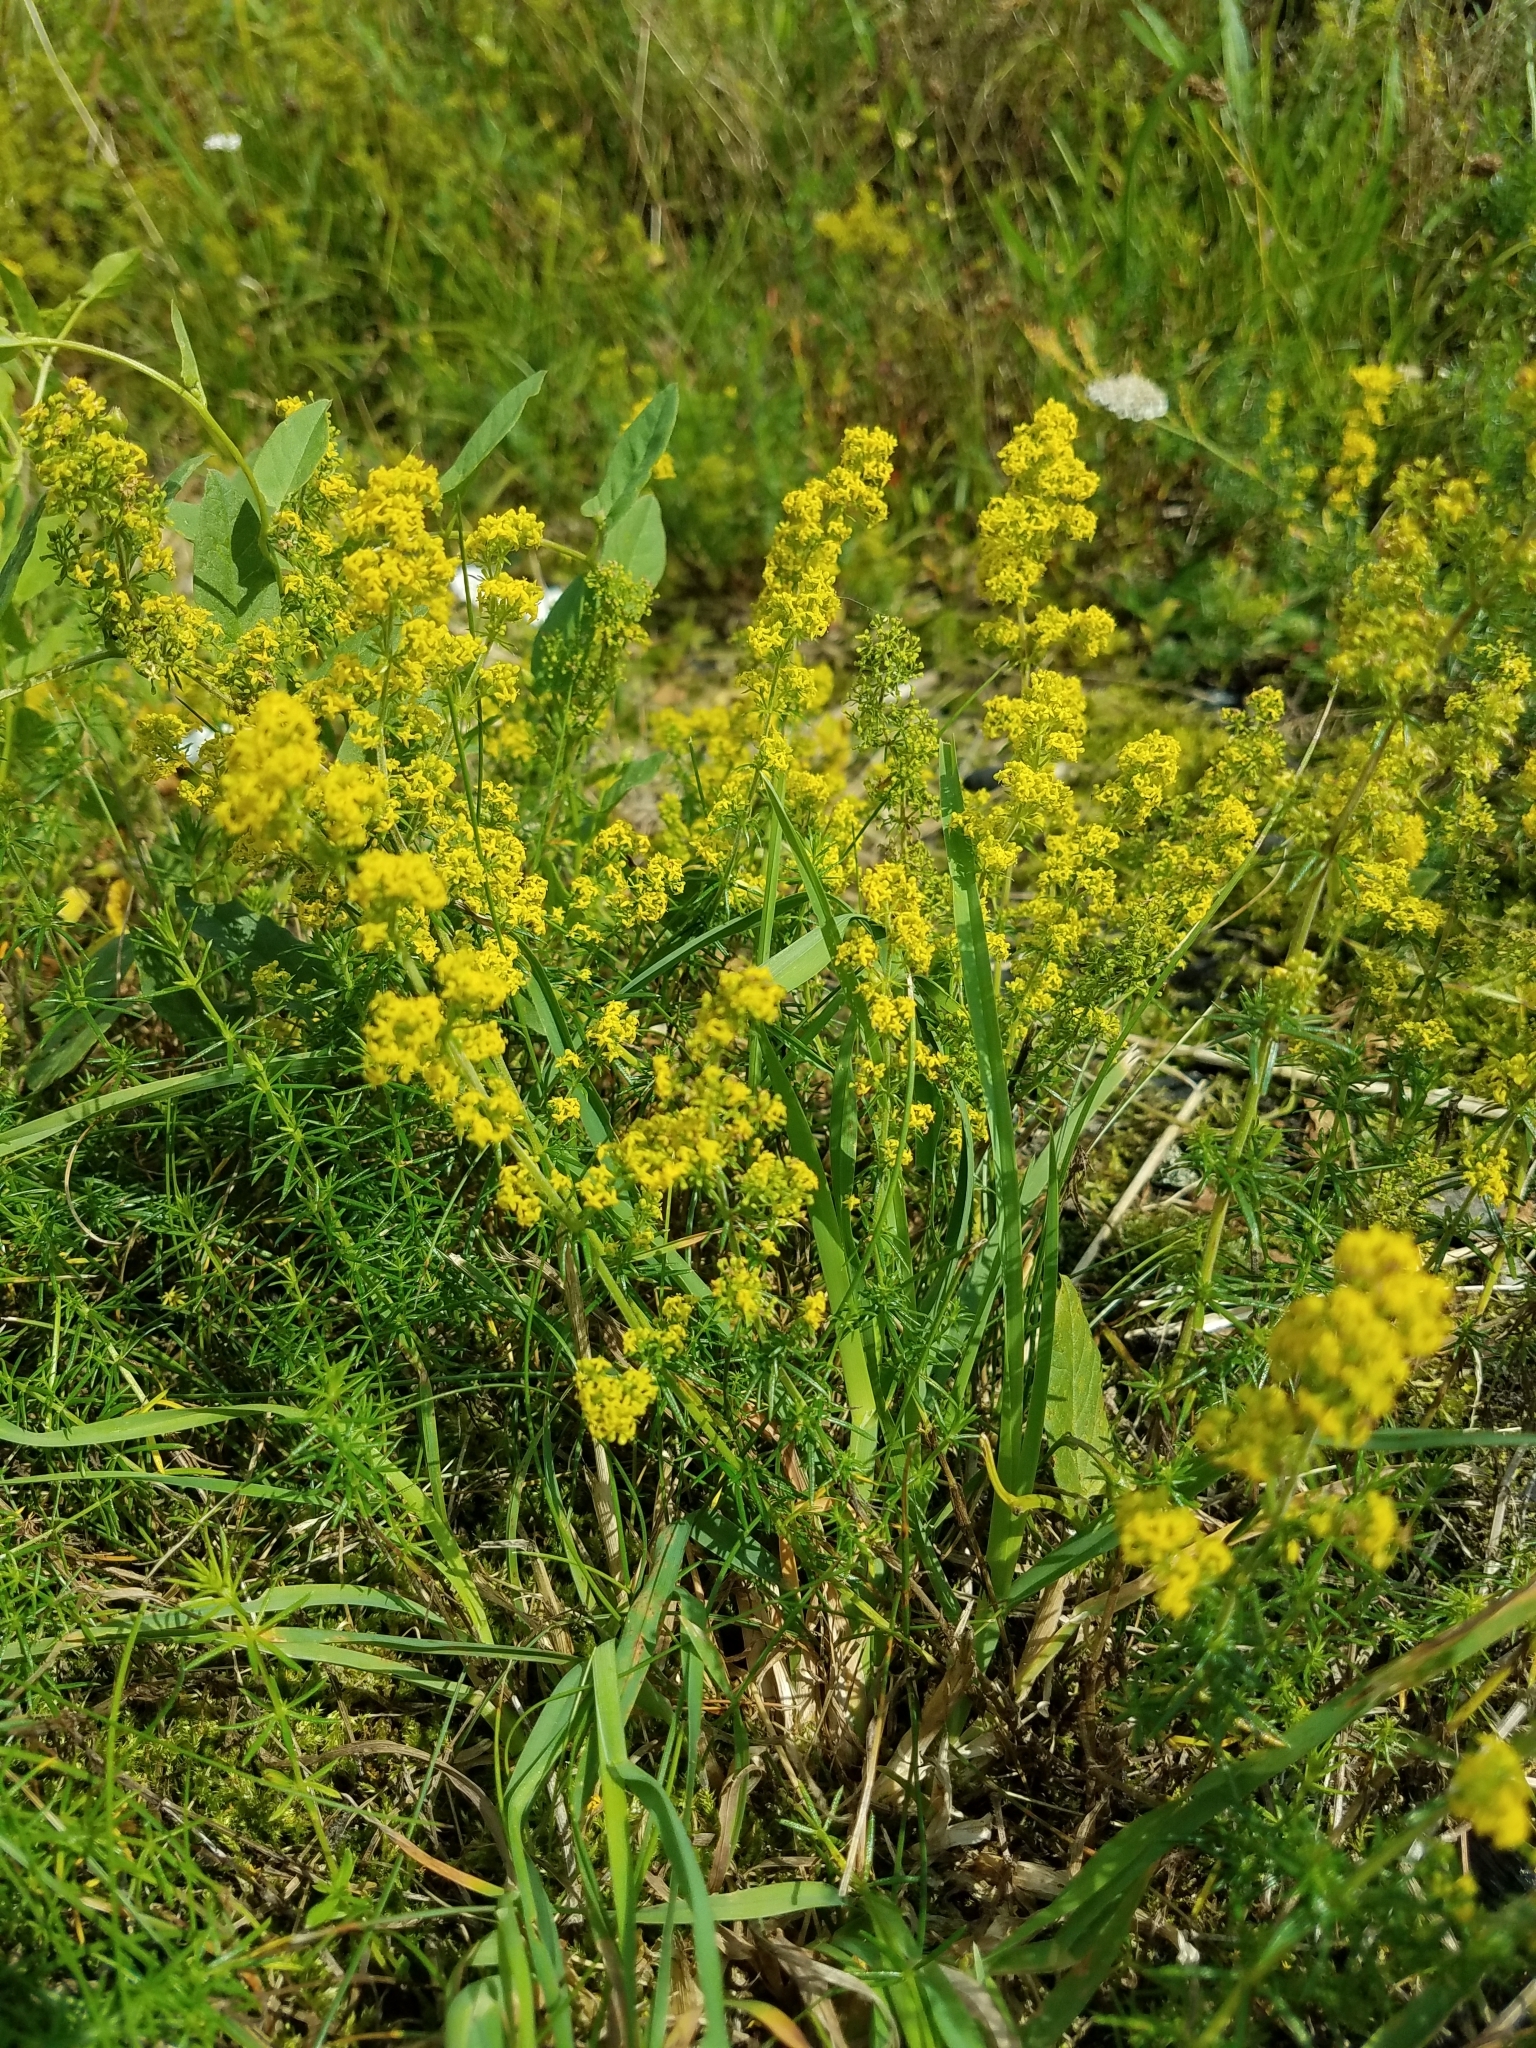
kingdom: Plantae
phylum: Tracheophyta
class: Magnoliopsida
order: Gentianales
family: Rubiaceae
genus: Galium
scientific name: Galium verum
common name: Lady's bedstraw
